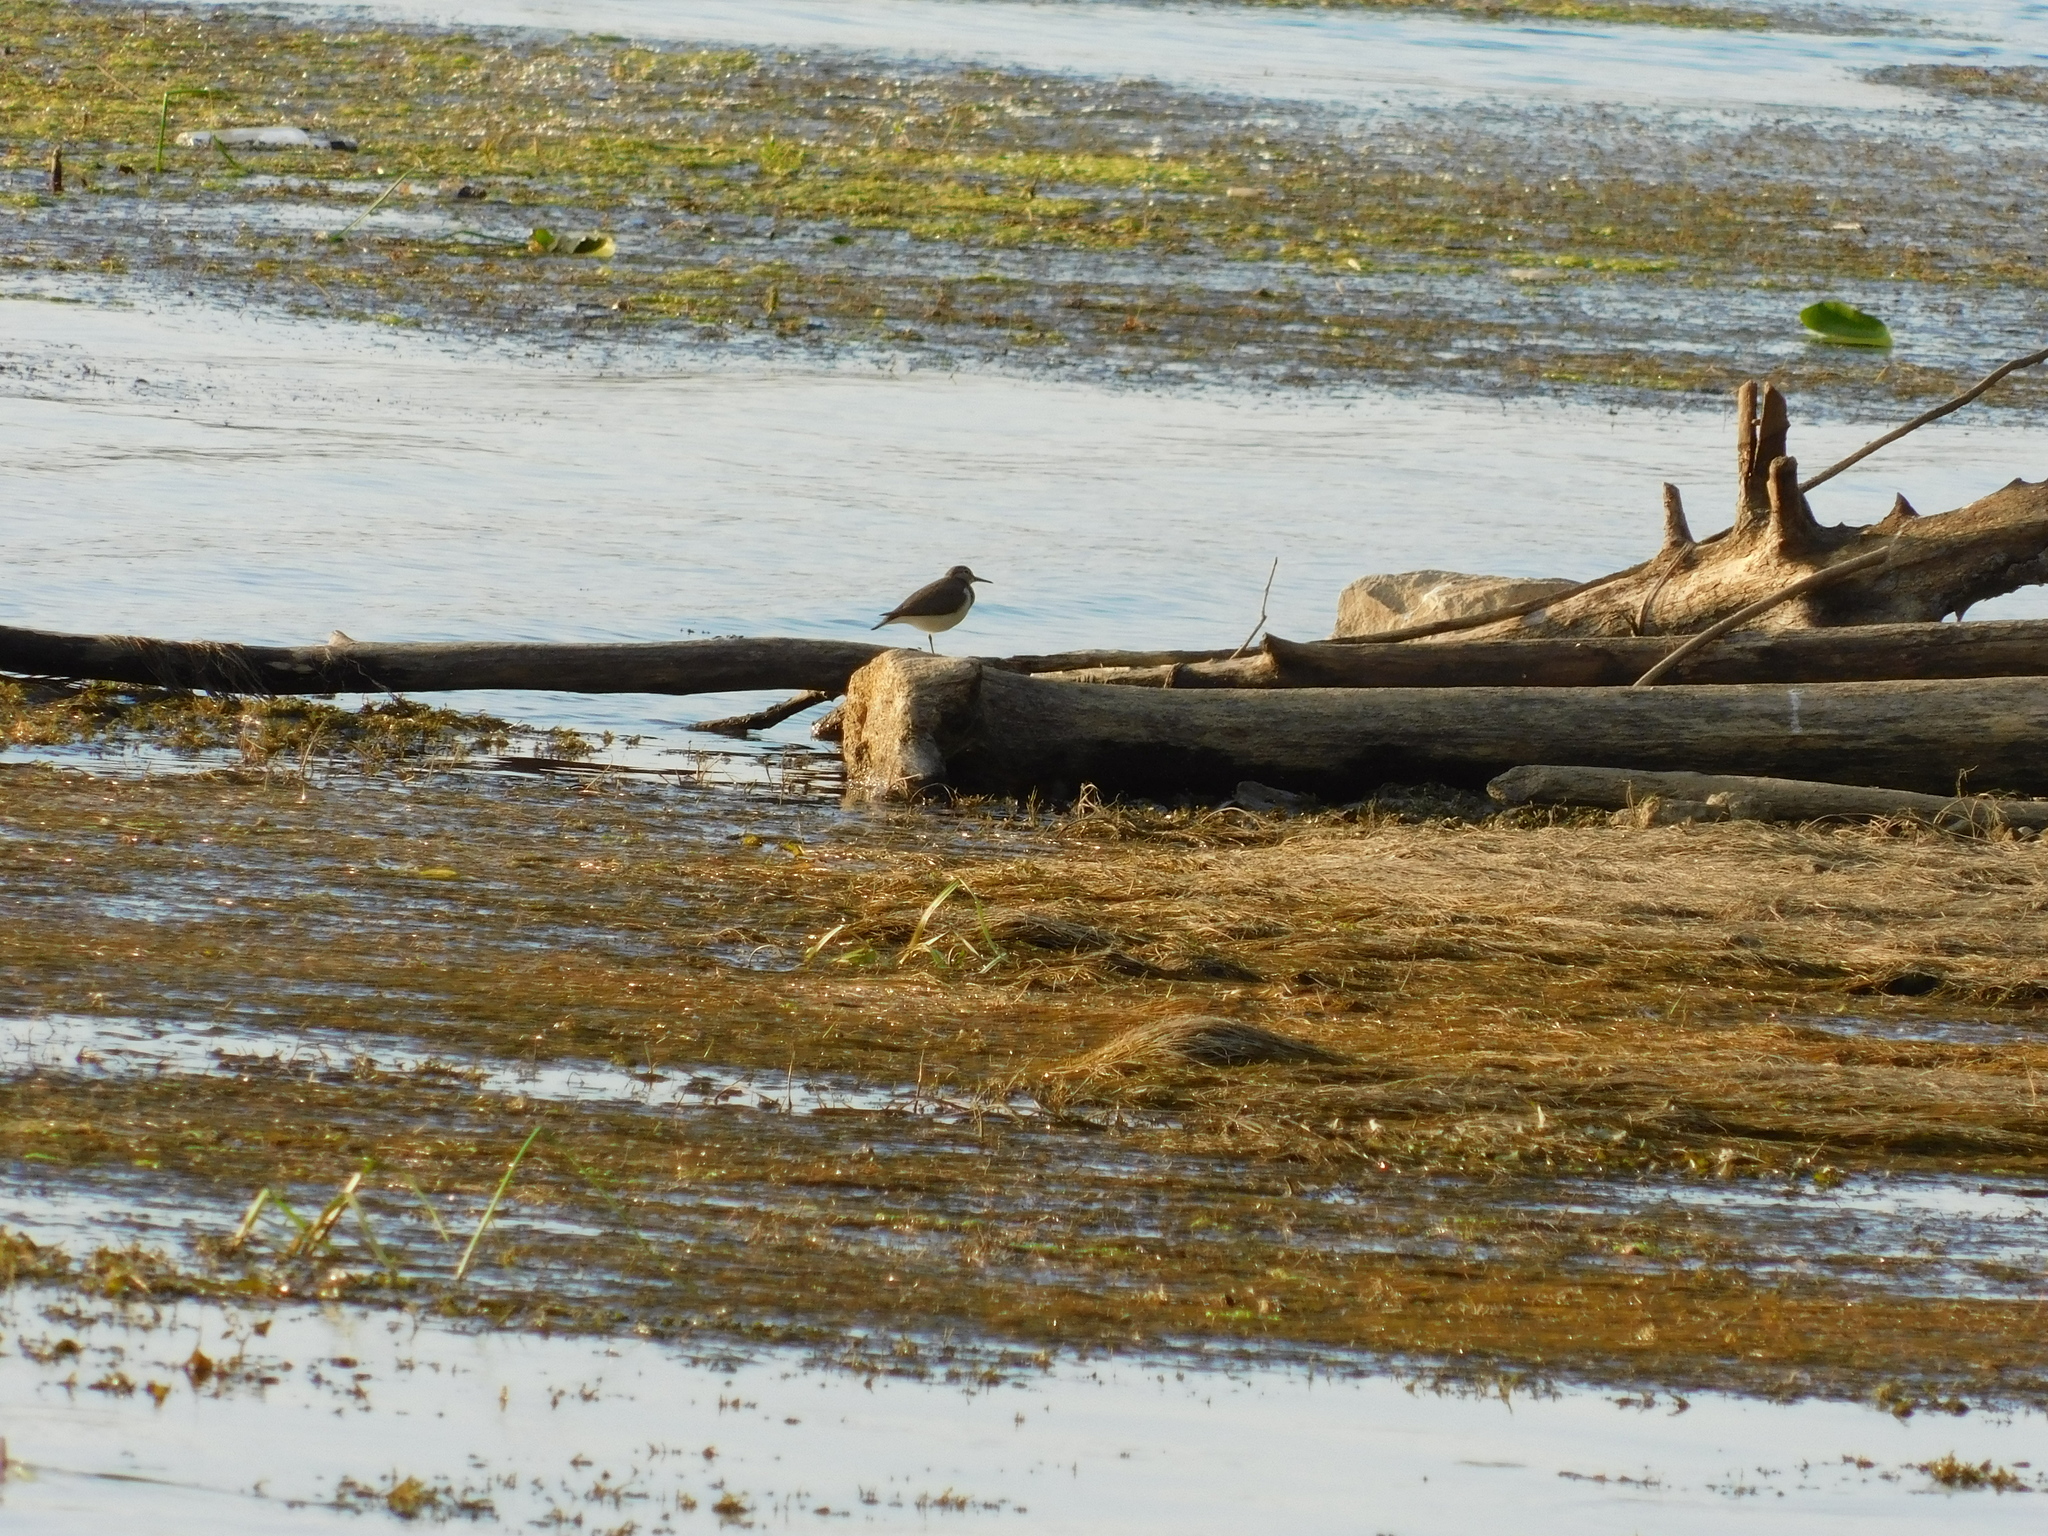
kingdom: Animalia
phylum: Chordata
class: Aves
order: Charadriiformes
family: Scolopacidae
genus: Actitis
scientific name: Actitis hypoleucos
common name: Common sandpiper
